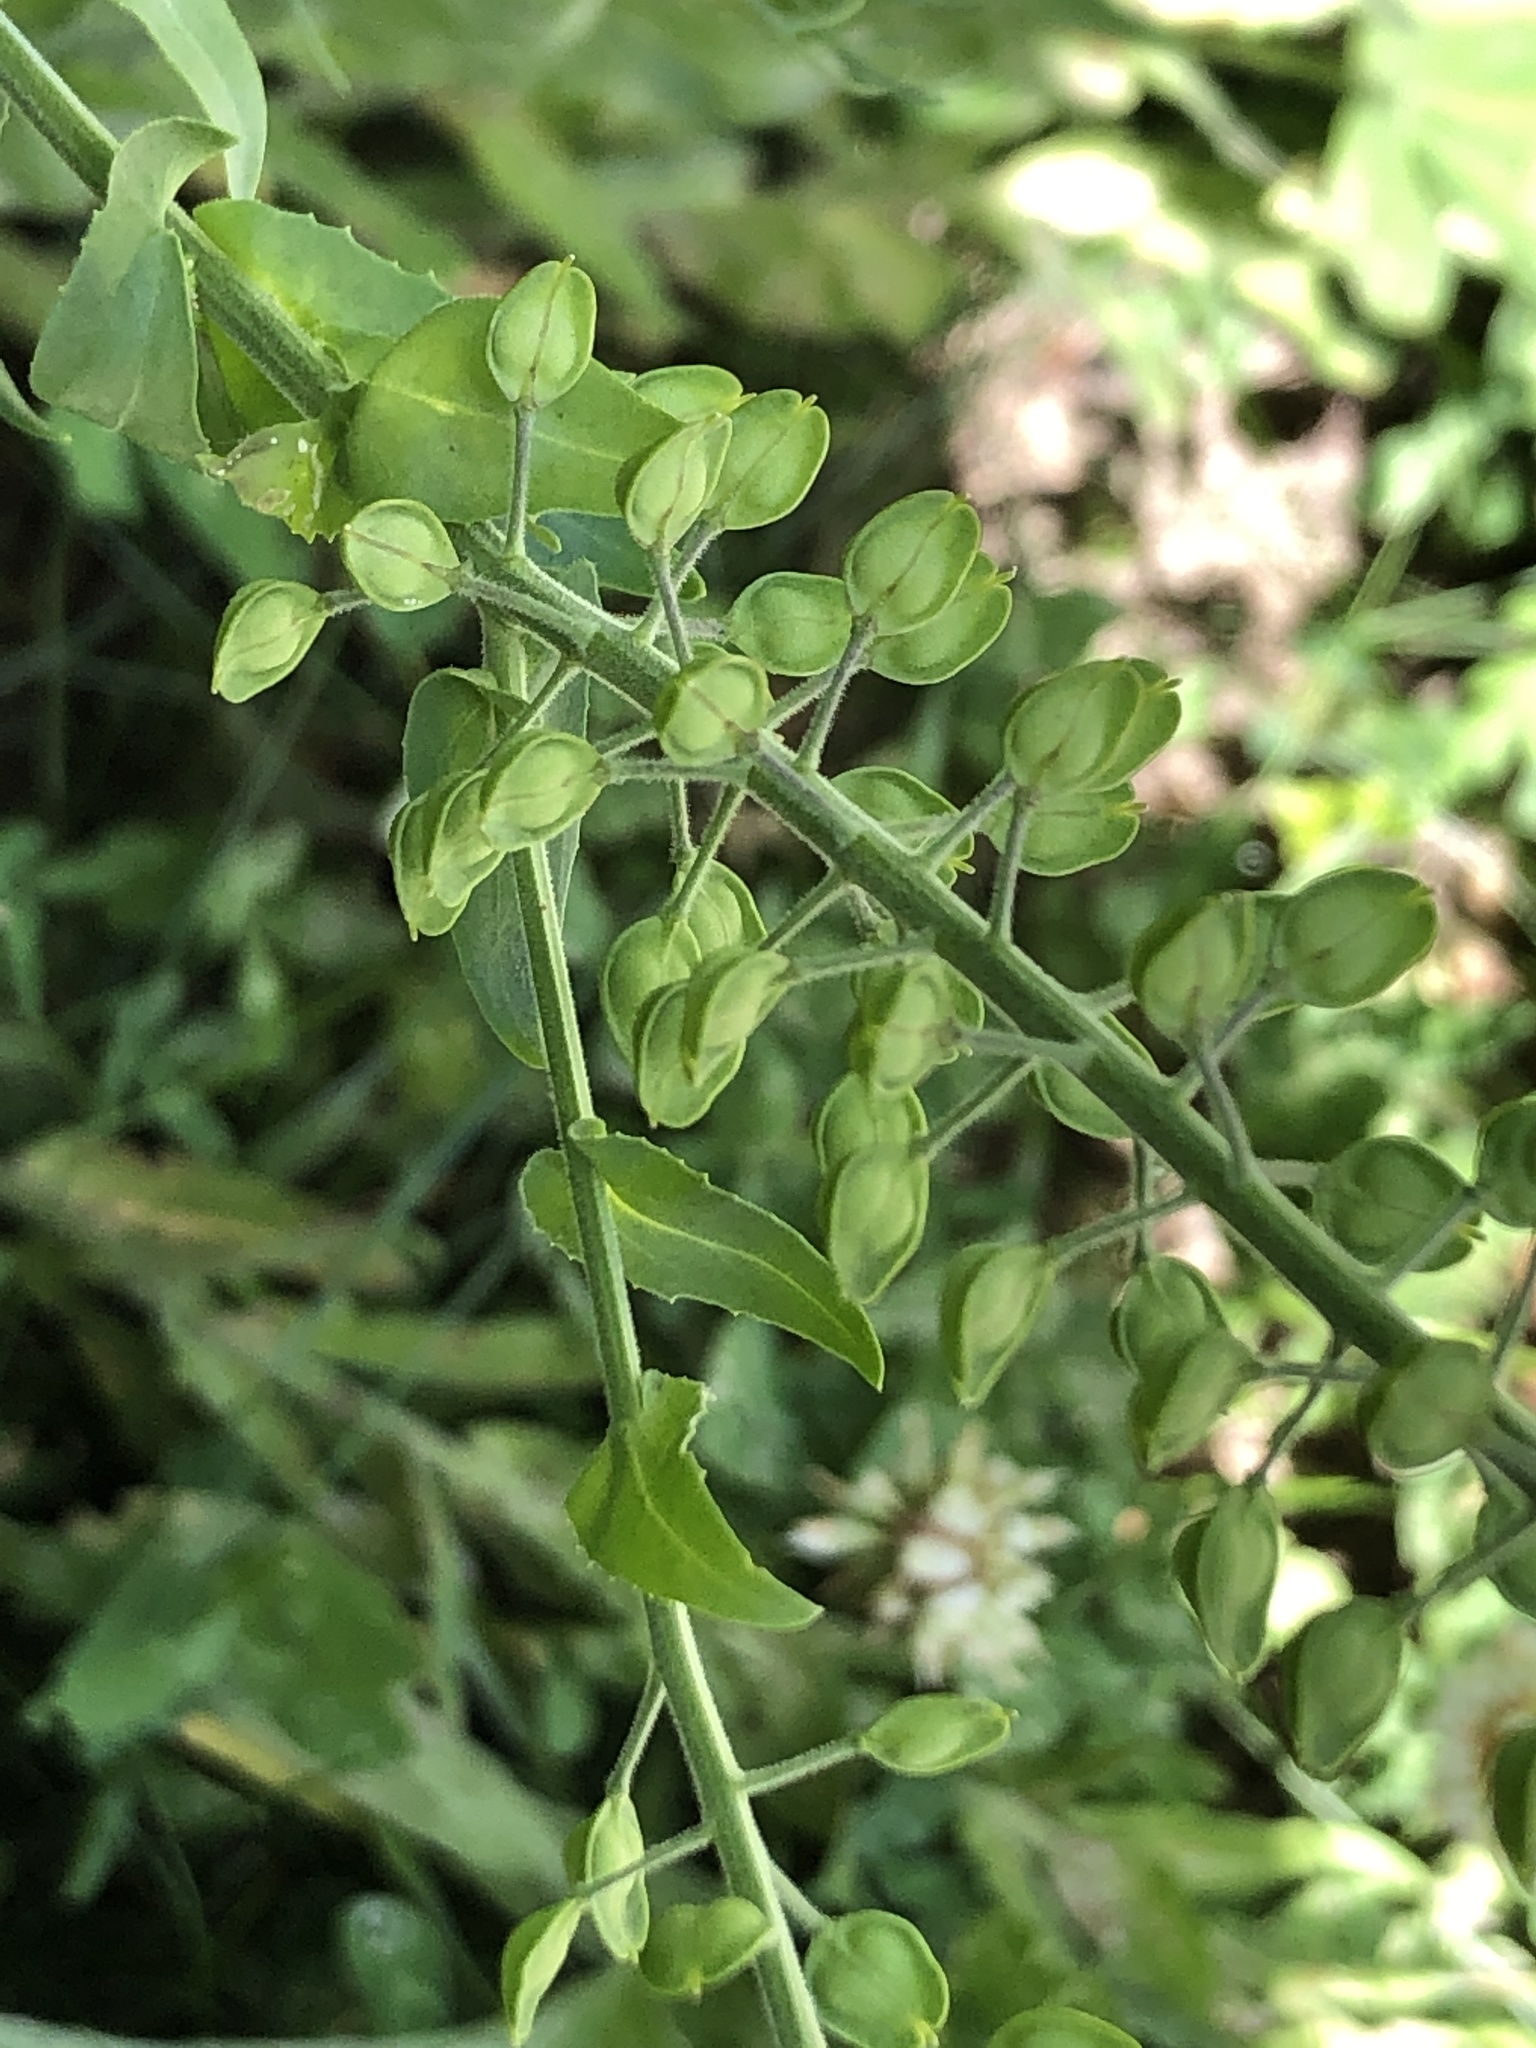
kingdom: Plantae
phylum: Tracheophyta
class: Magnoliopsida
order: Brassicales
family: Brassicaceae
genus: Lepidium
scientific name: Lepidium campestre
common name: Field pepperwort
